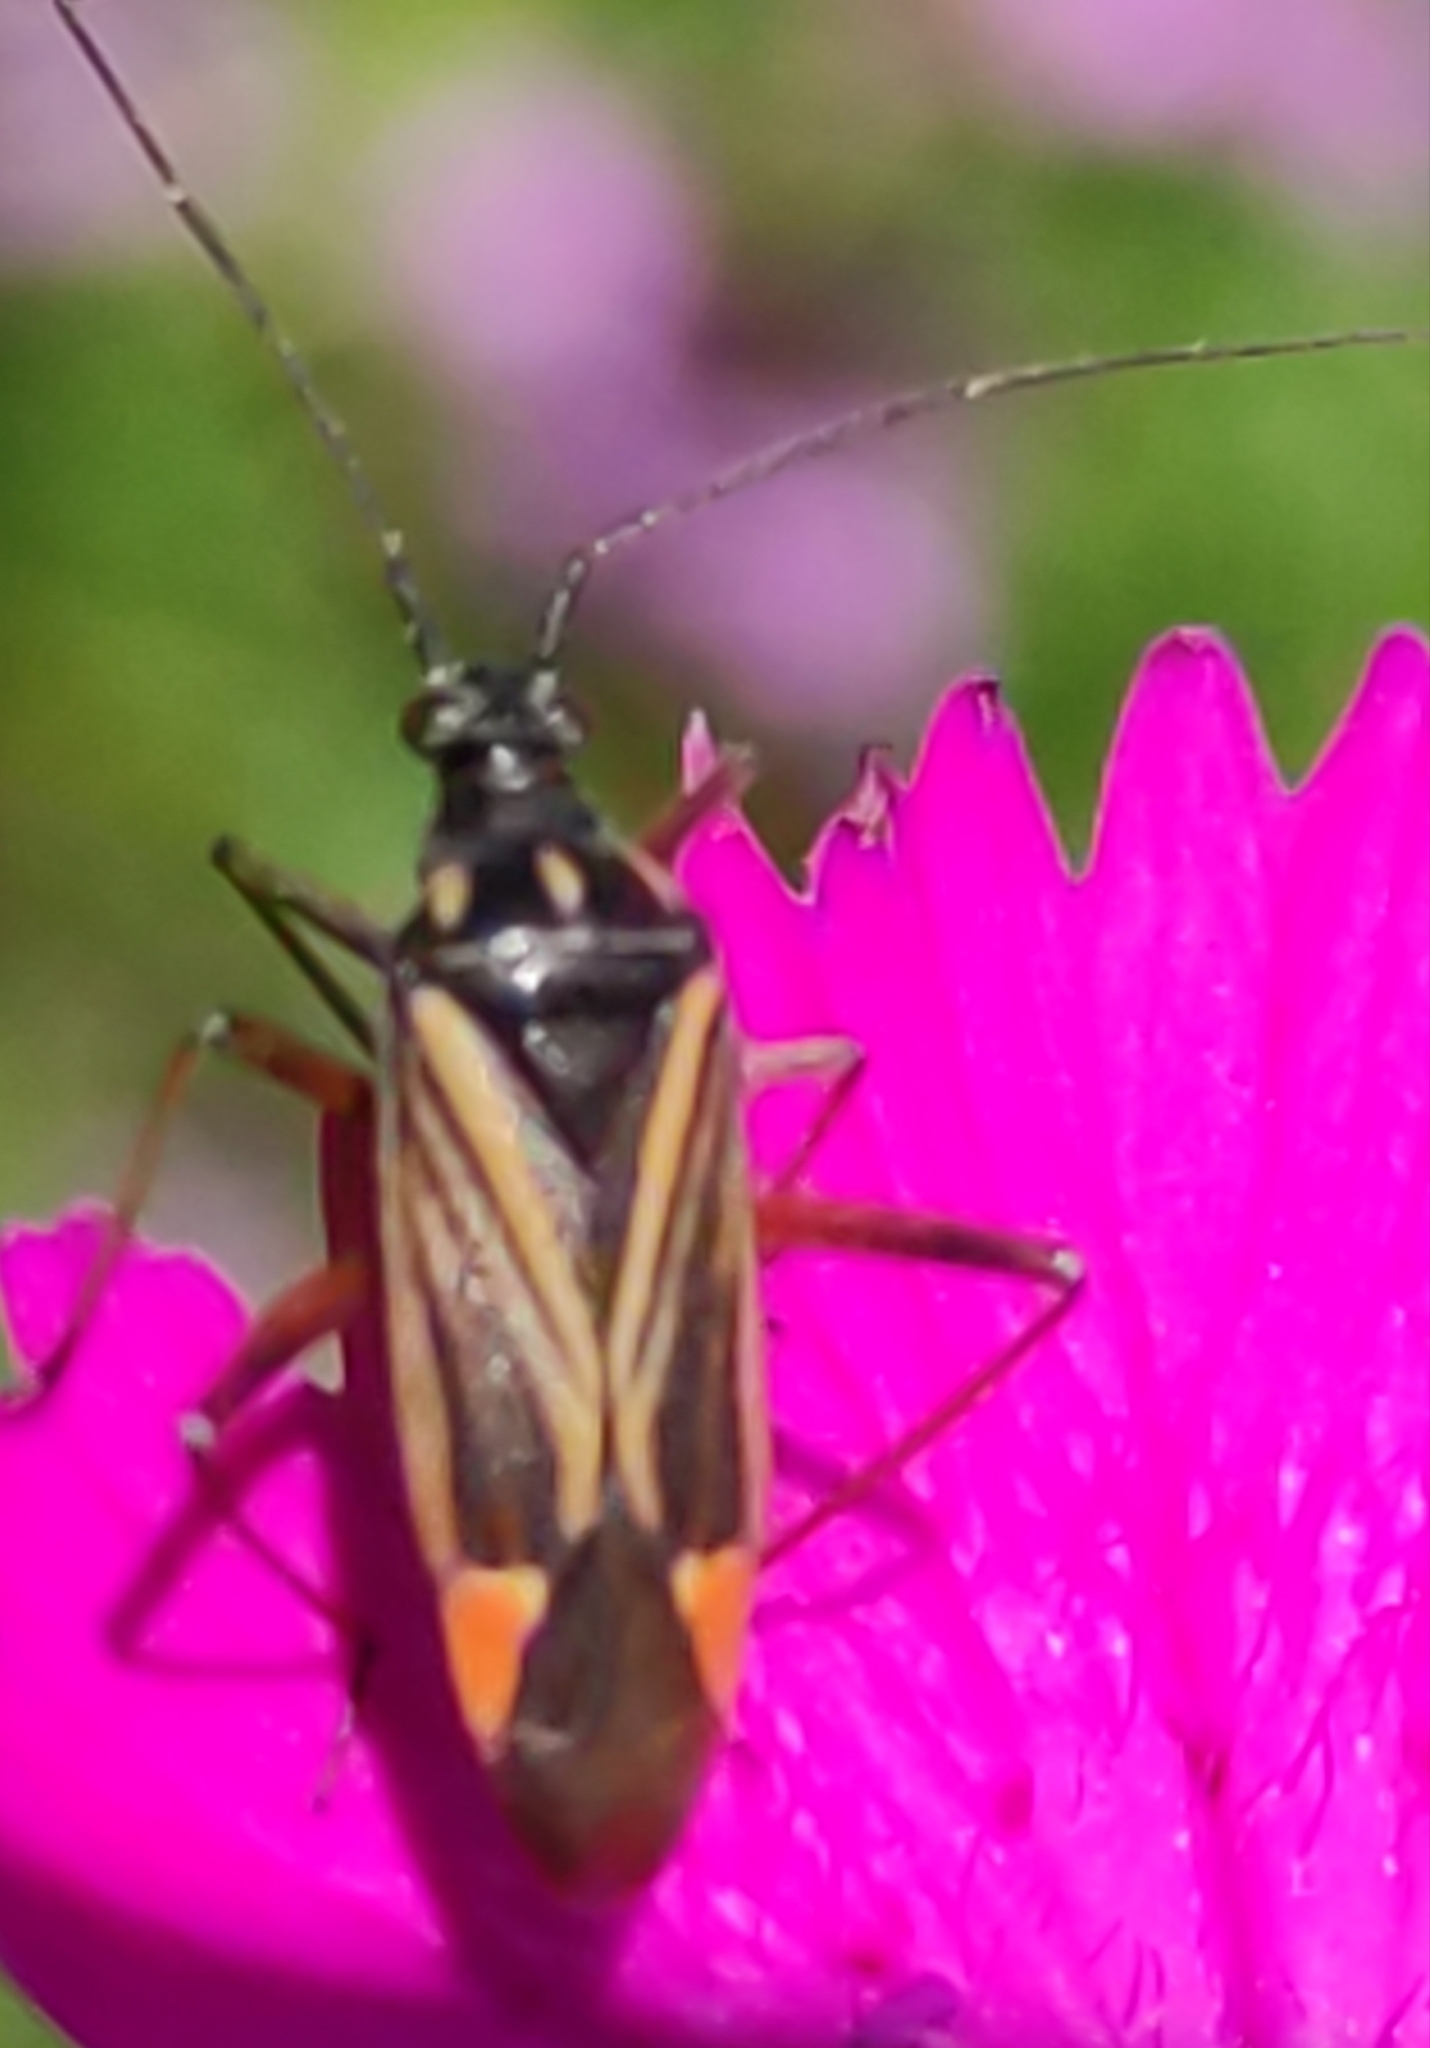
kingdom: Animalia
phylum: Arthropoda
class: Insecta
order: Hemiptera
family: Miridae
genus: Hadrodemus
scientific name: Hadrodemus m-flavum
